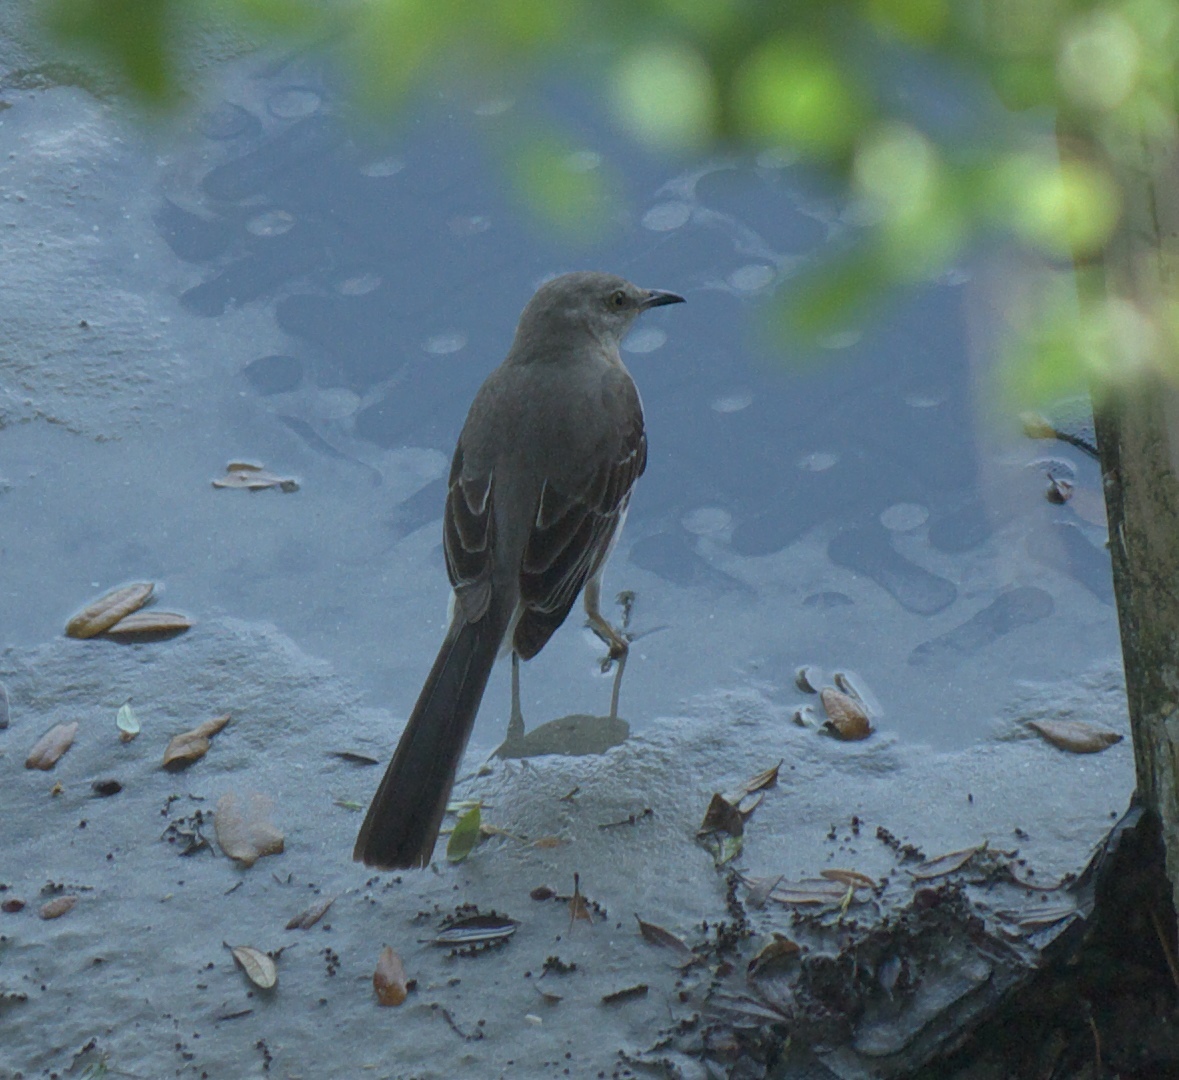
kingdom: Animalia
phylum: Chordata
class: Aves
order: Passeriformes
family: Mimidae
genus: Mimus
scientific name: Mimus polyglottos
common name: Northern mockingbird
